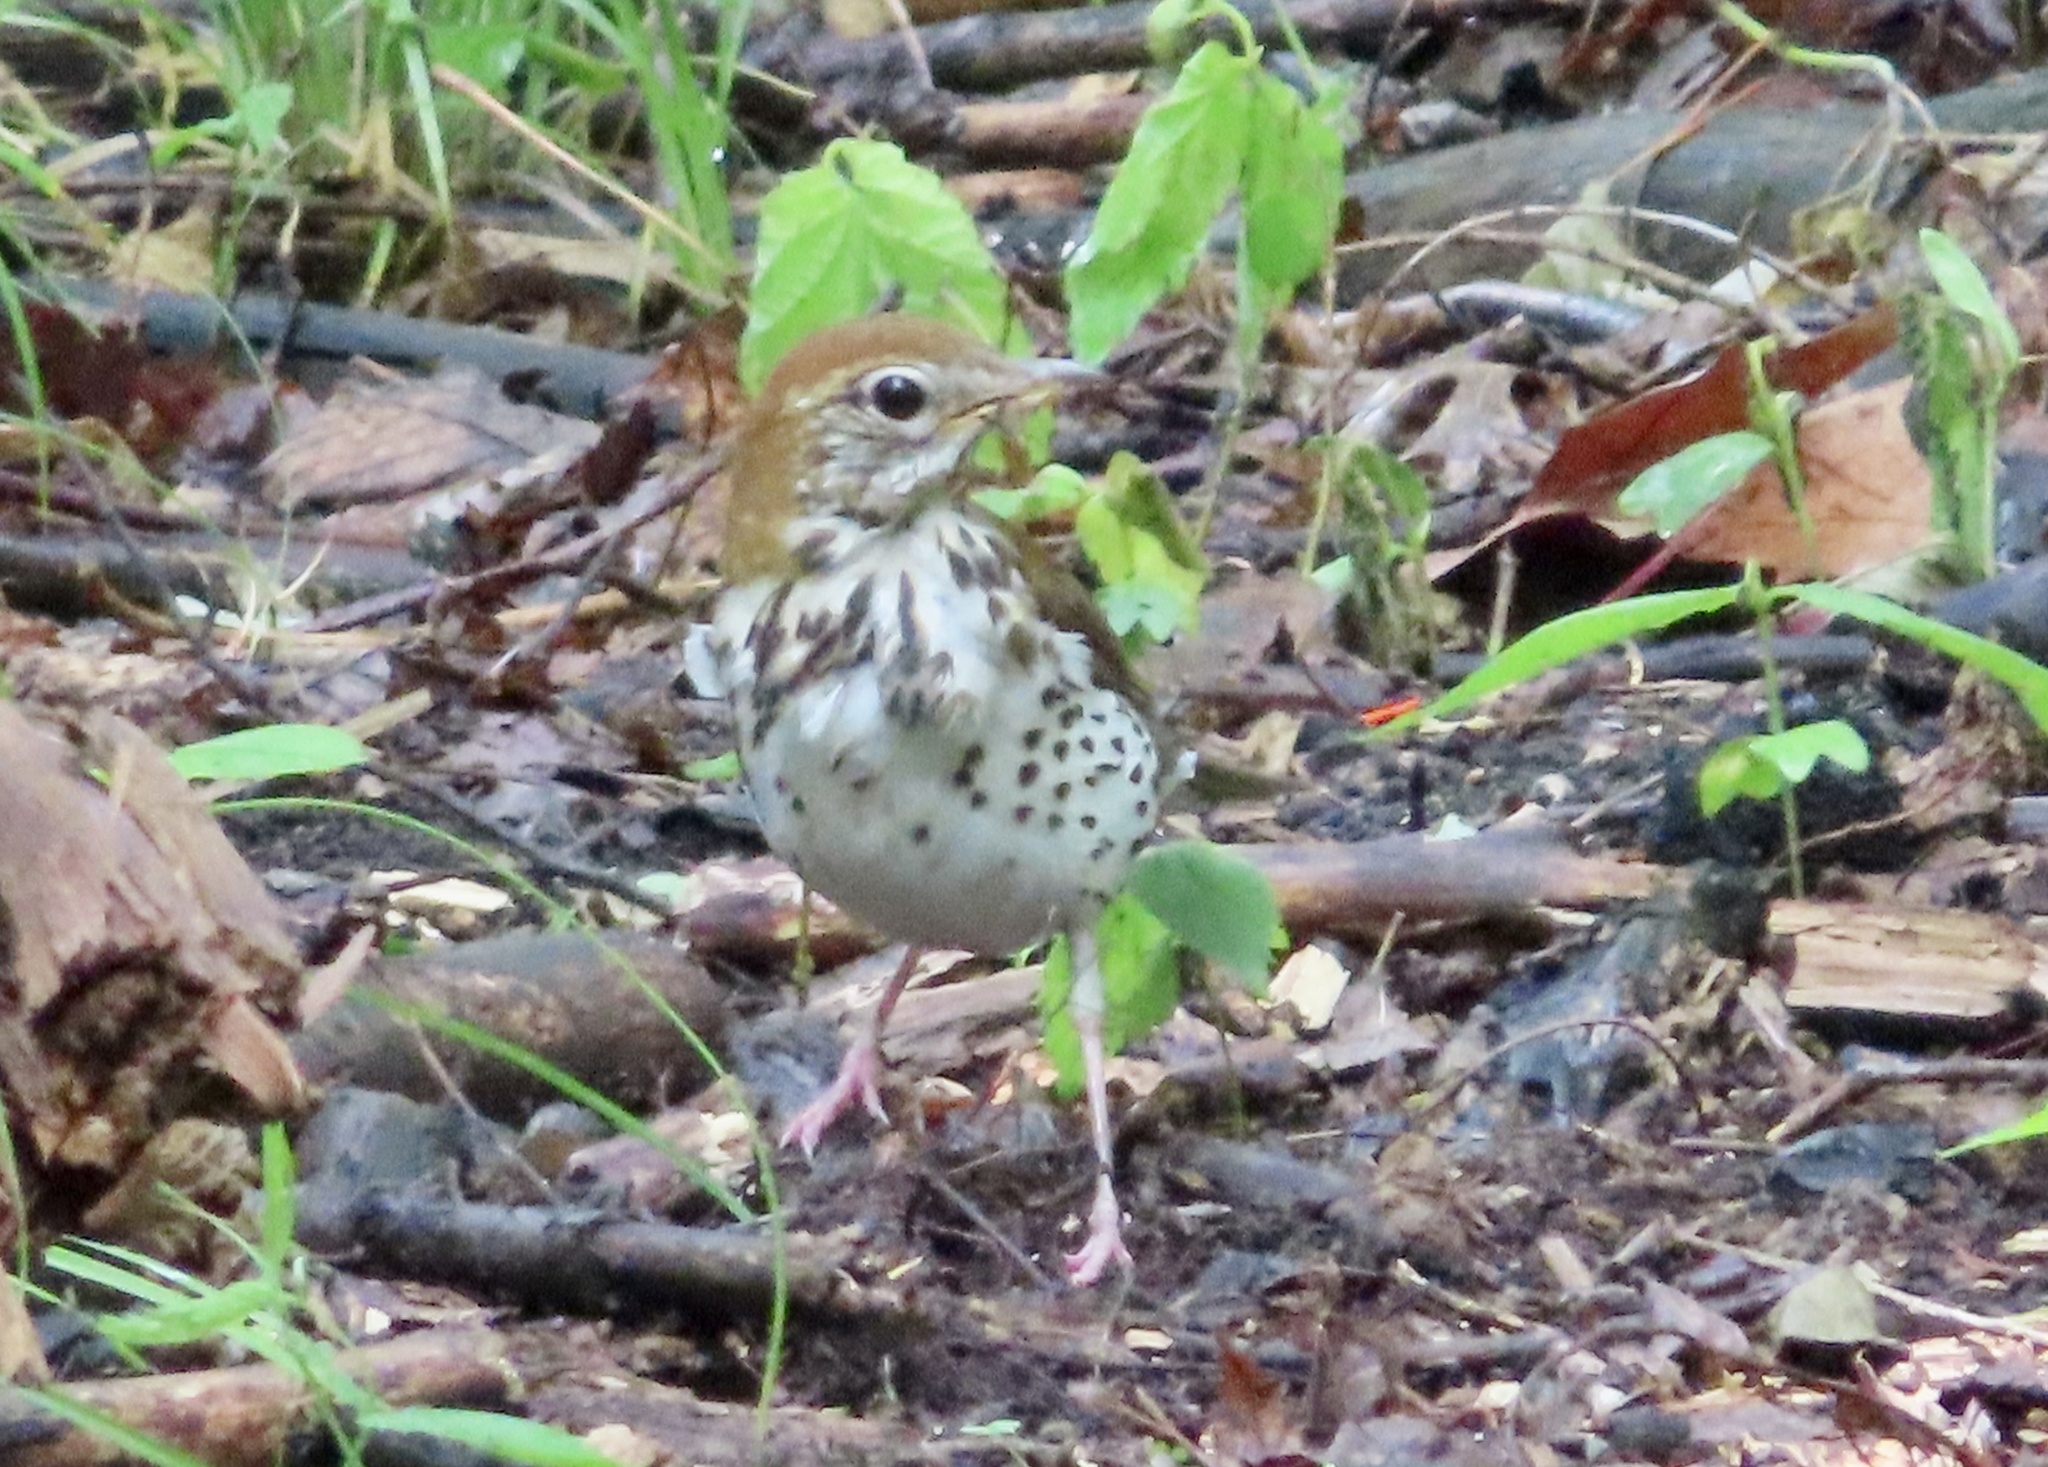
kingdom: Animalia
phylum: Chordata
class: Aves
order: Passeriformes
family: Turdidae
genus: Hylocichla
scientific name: Hylocichla mustelina
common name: Wood thrush
